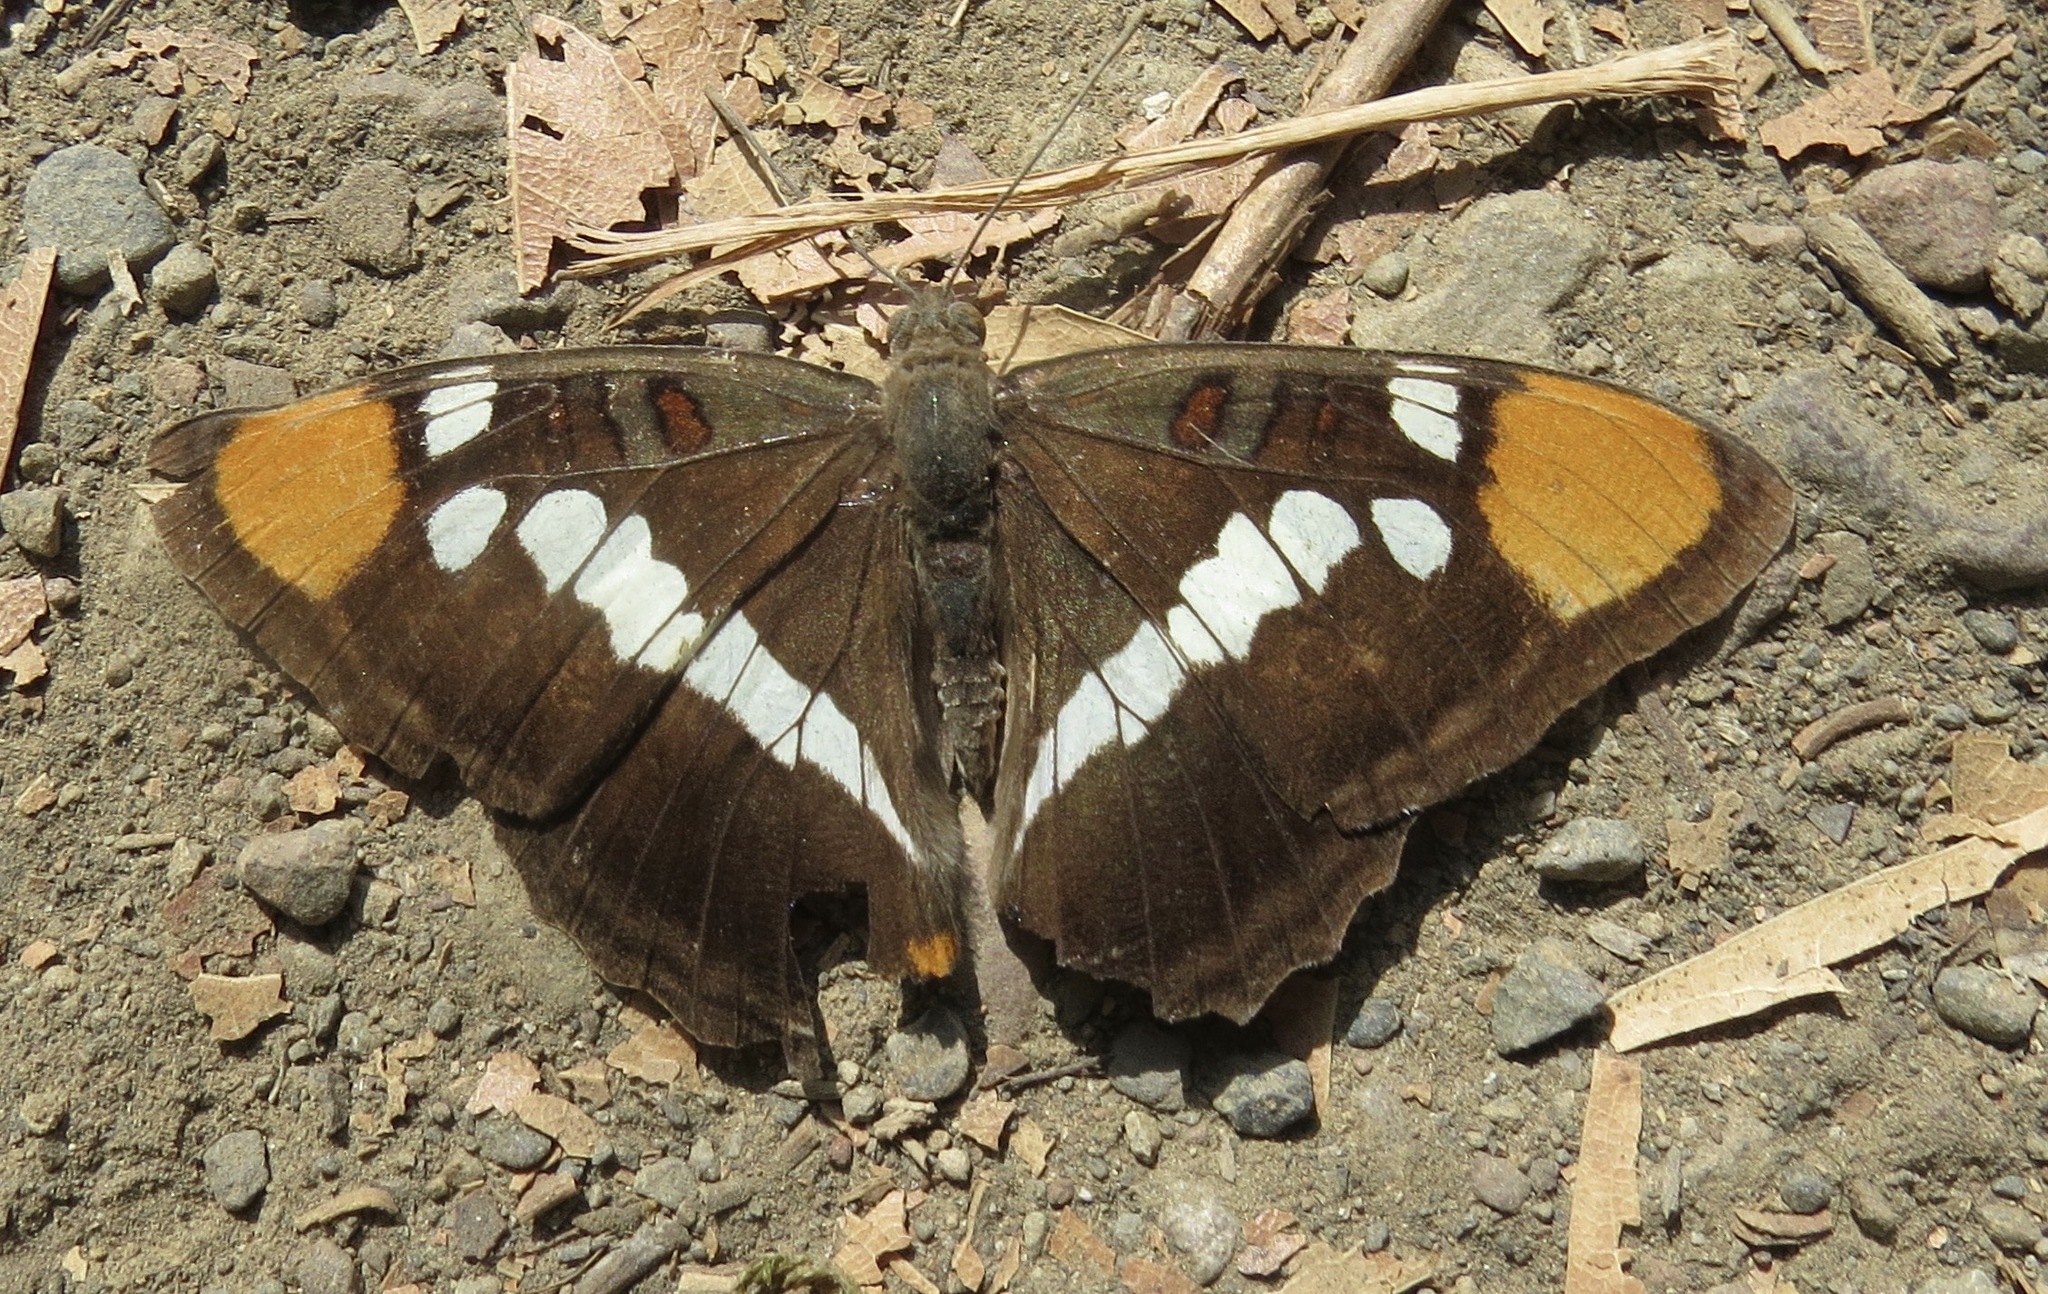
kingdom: Animalia
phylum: Arthropoda
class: Insecta
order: Lepidoptera
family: Nymphalidae
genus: Limenitis
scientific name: Limenitis bredowii
